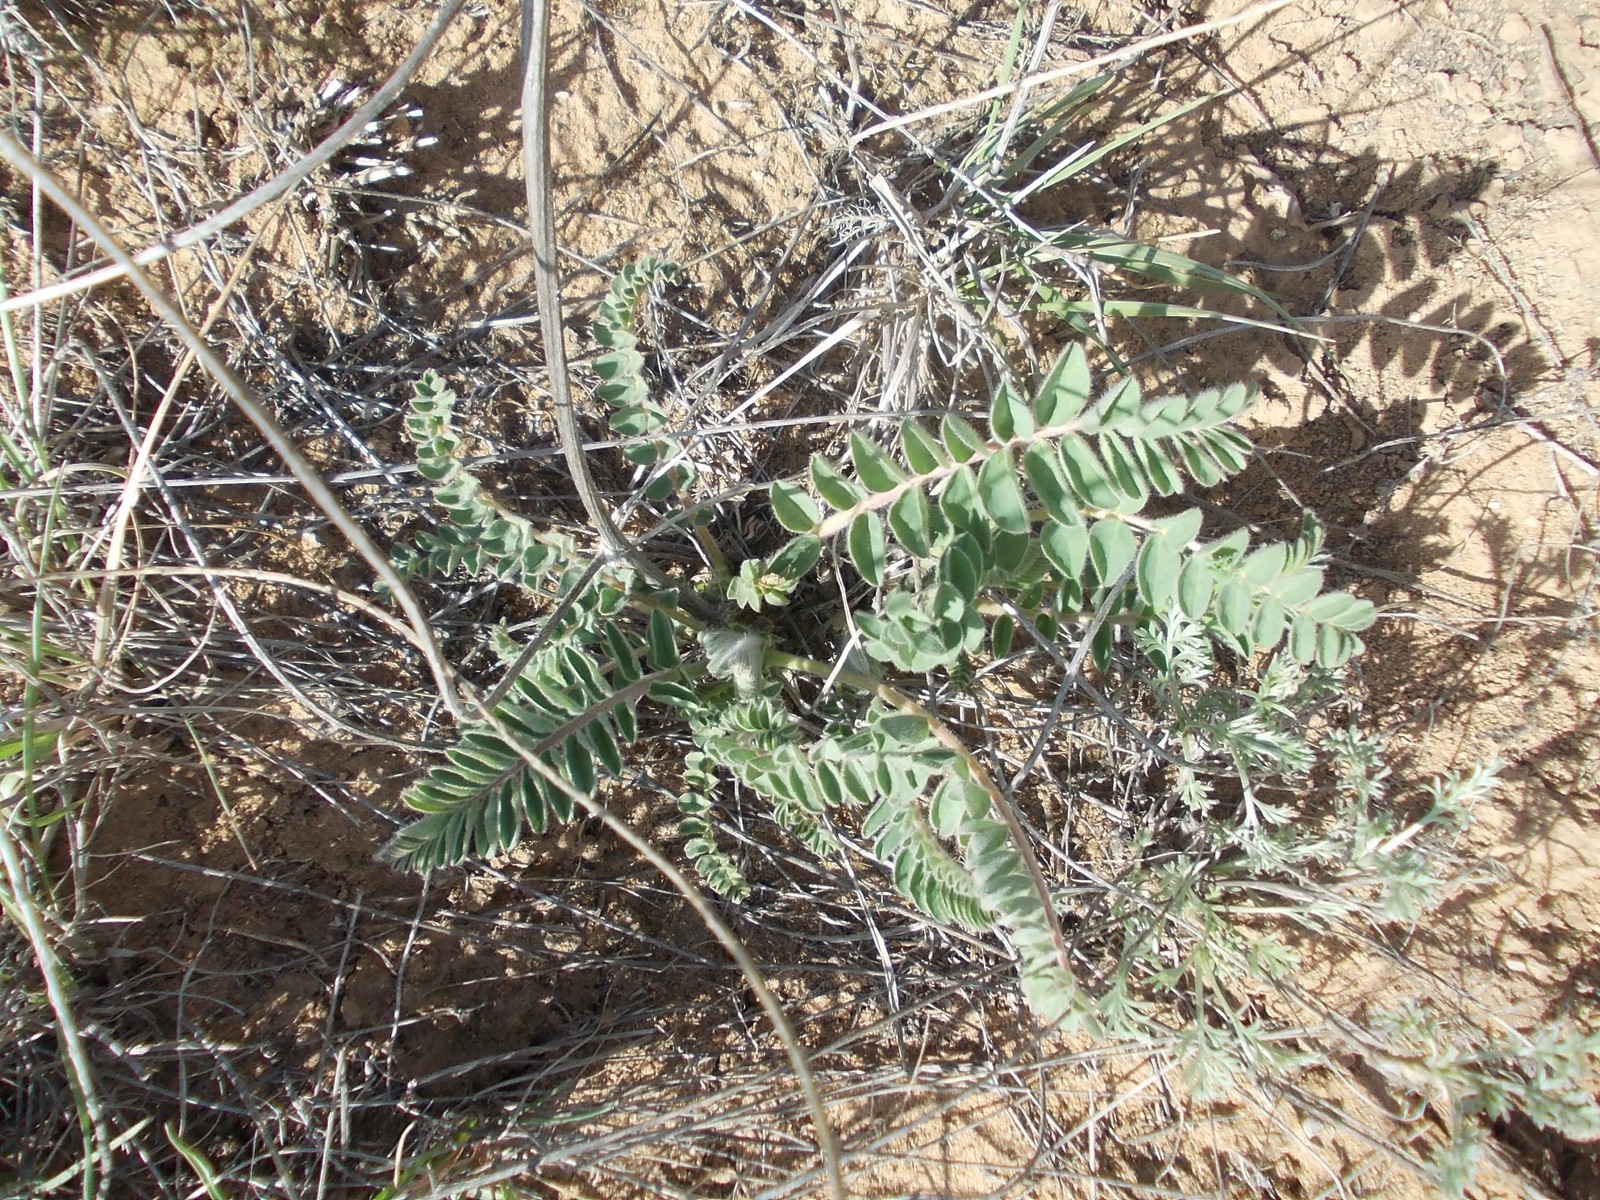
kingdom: Plantae
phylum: Tracheophyta
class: Magnoliopsida
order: Fabales
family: Fabaceae
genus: Astragalus
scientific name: Astragalus vulpinus
